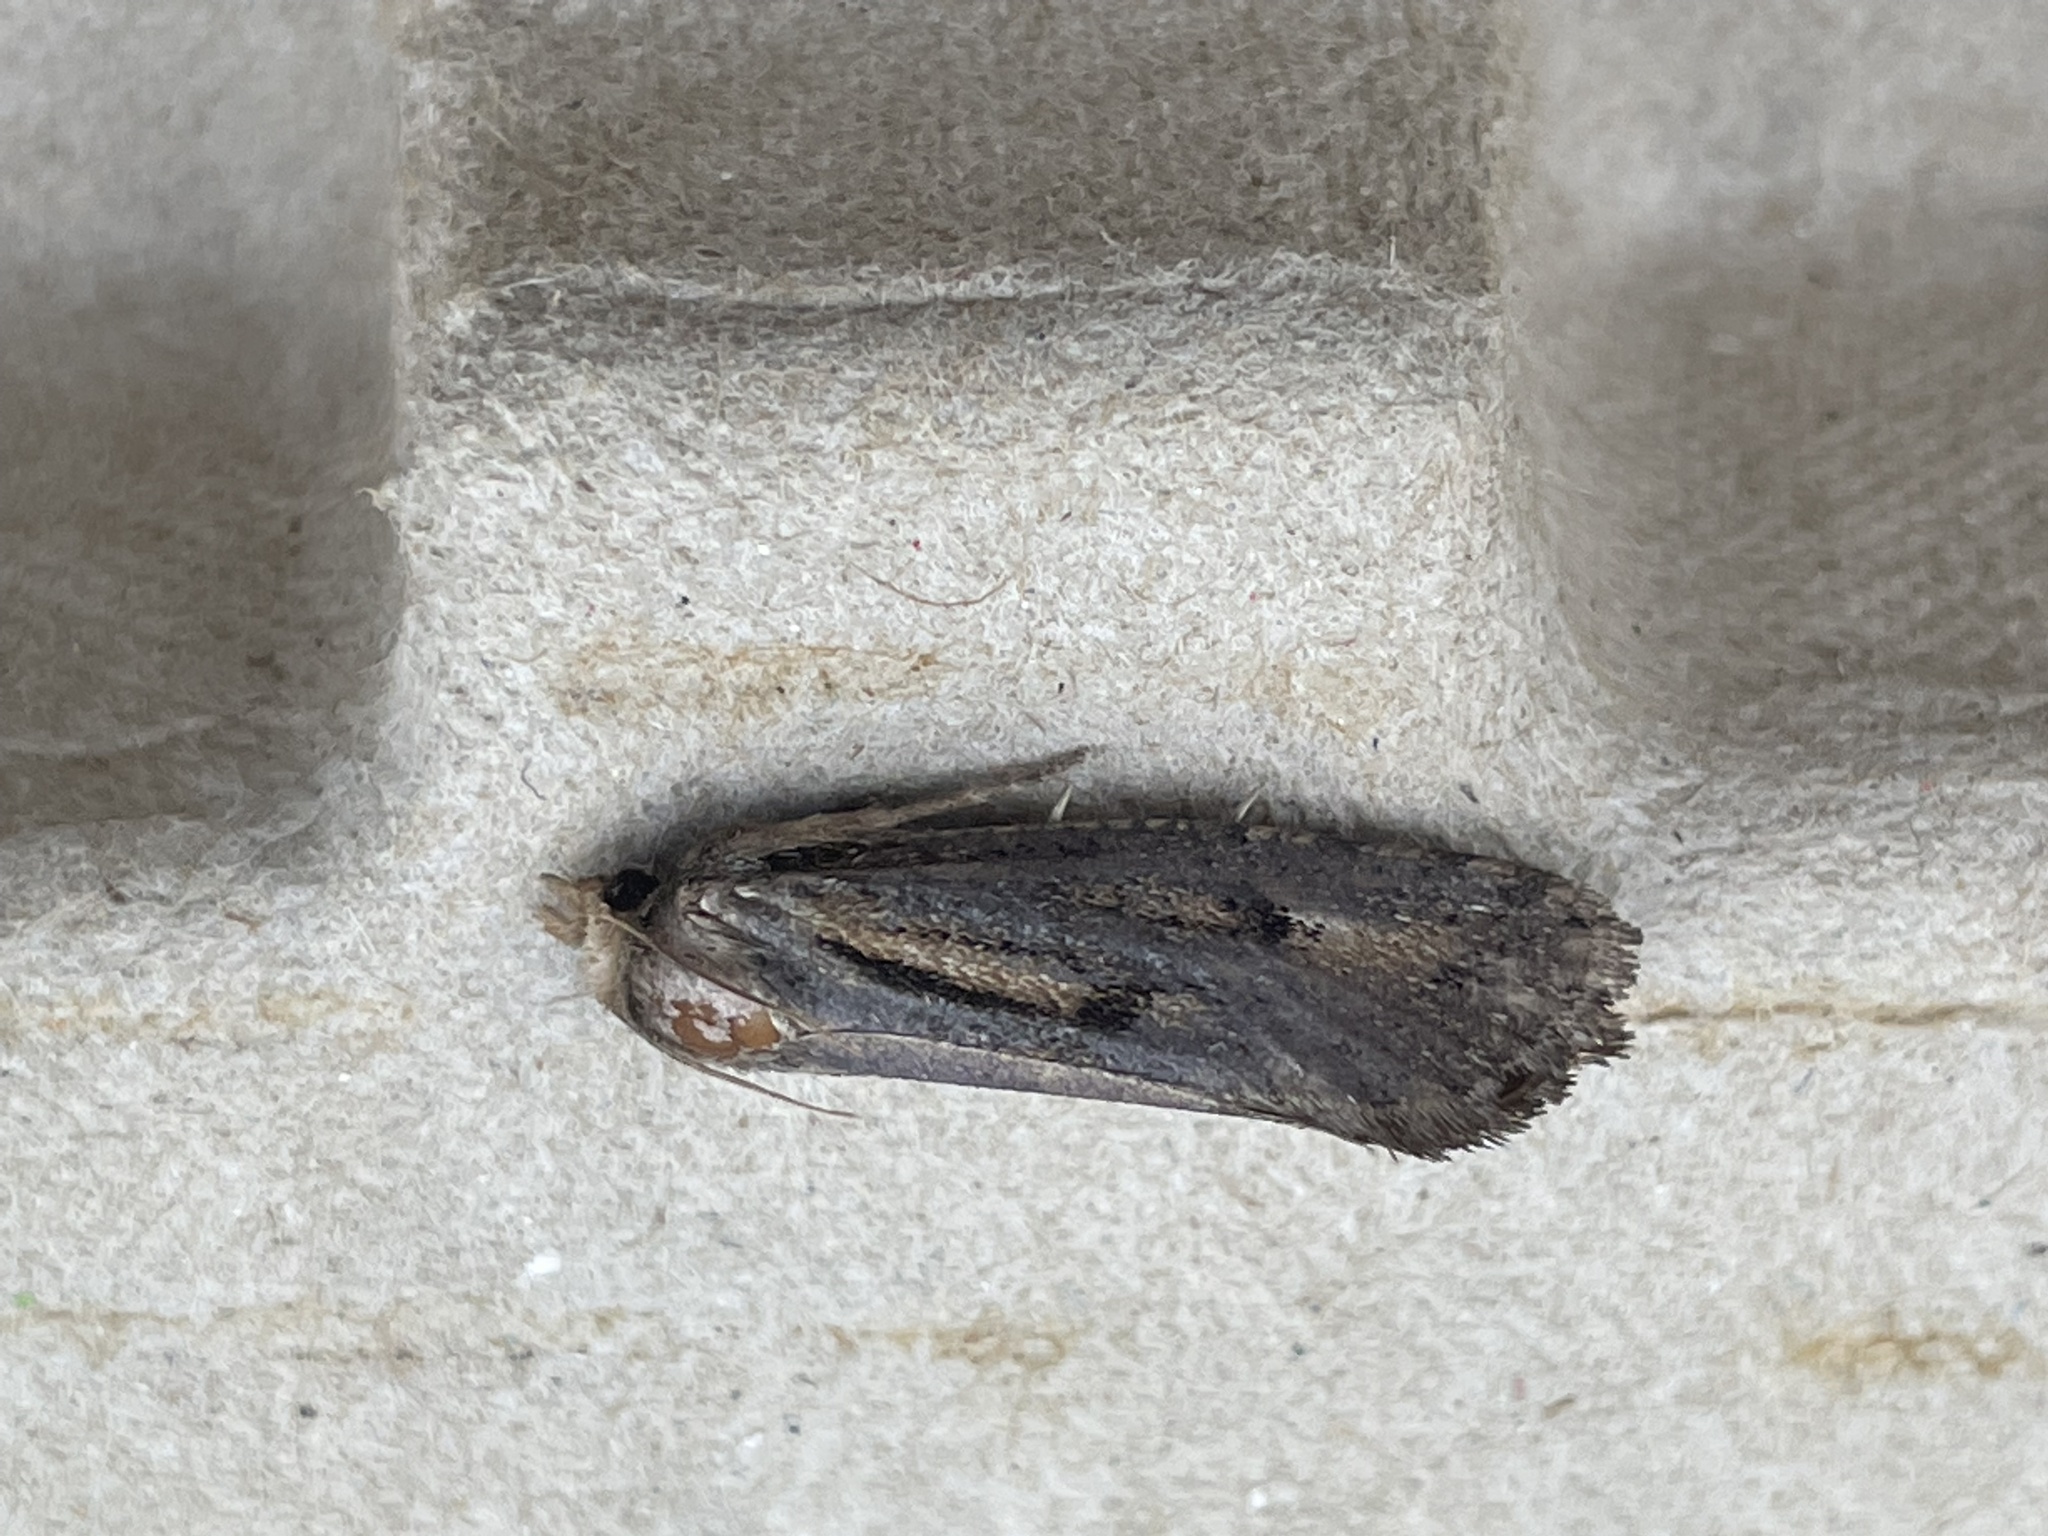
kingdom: Animalia
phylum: Arthropoda
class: Insecta
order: Lepidoptera
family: Tineidae
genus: Acrolophus
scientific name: Acrolophus popeanella
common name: Clemens' grass tubeworm moth
